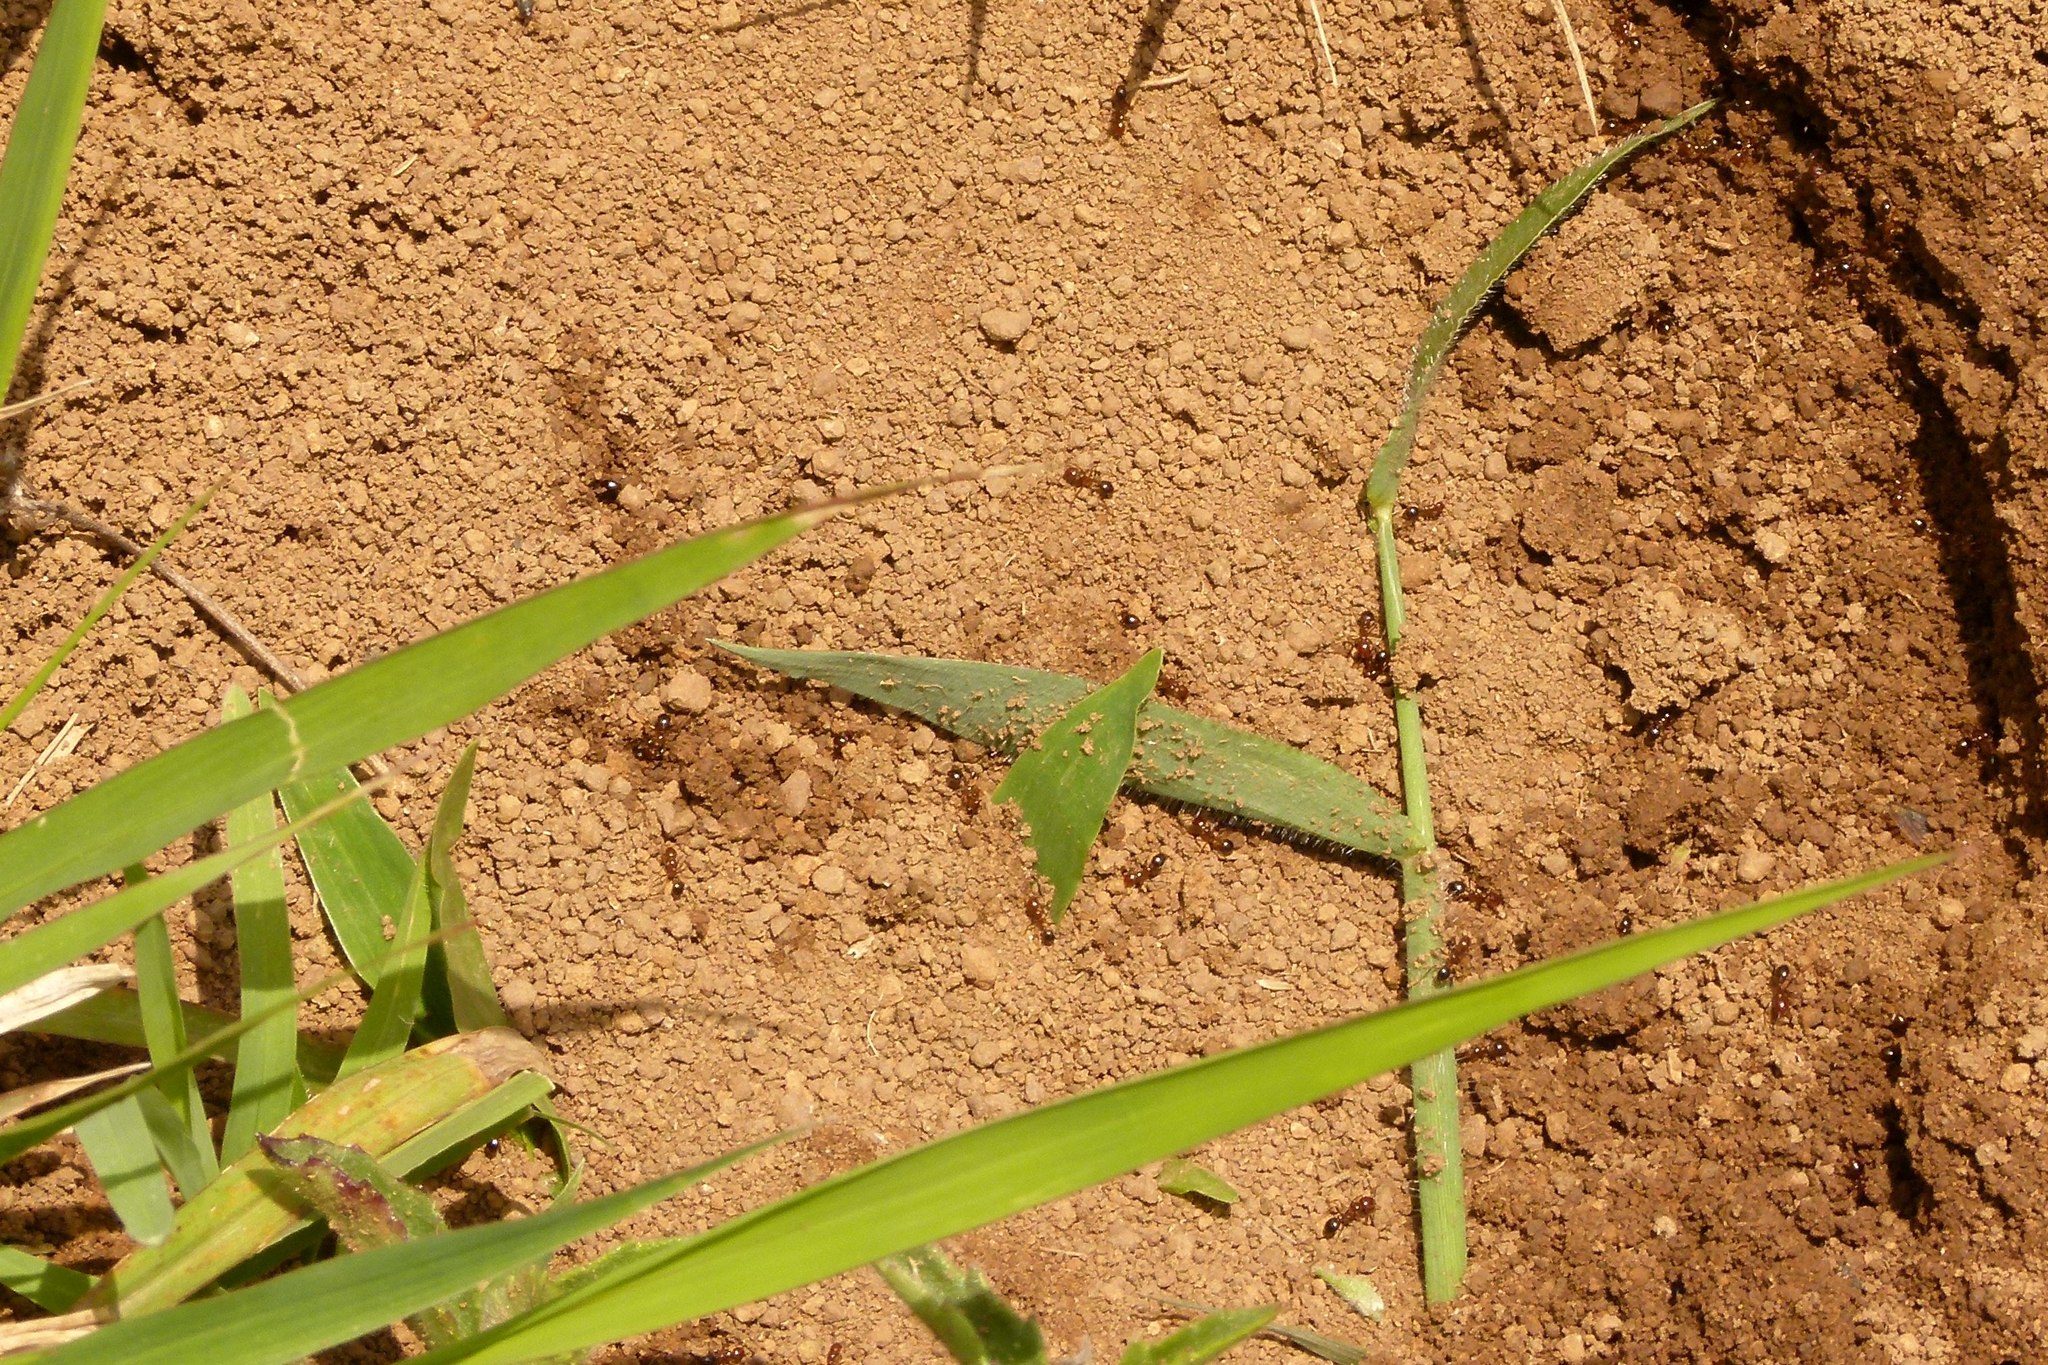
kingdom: Animalia
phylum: Arthropoda
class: Insecta
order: Hymenoptera
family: Formicidae
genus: Solenopsis
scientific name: Solenopsis invicta
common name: Red imported fire ant
